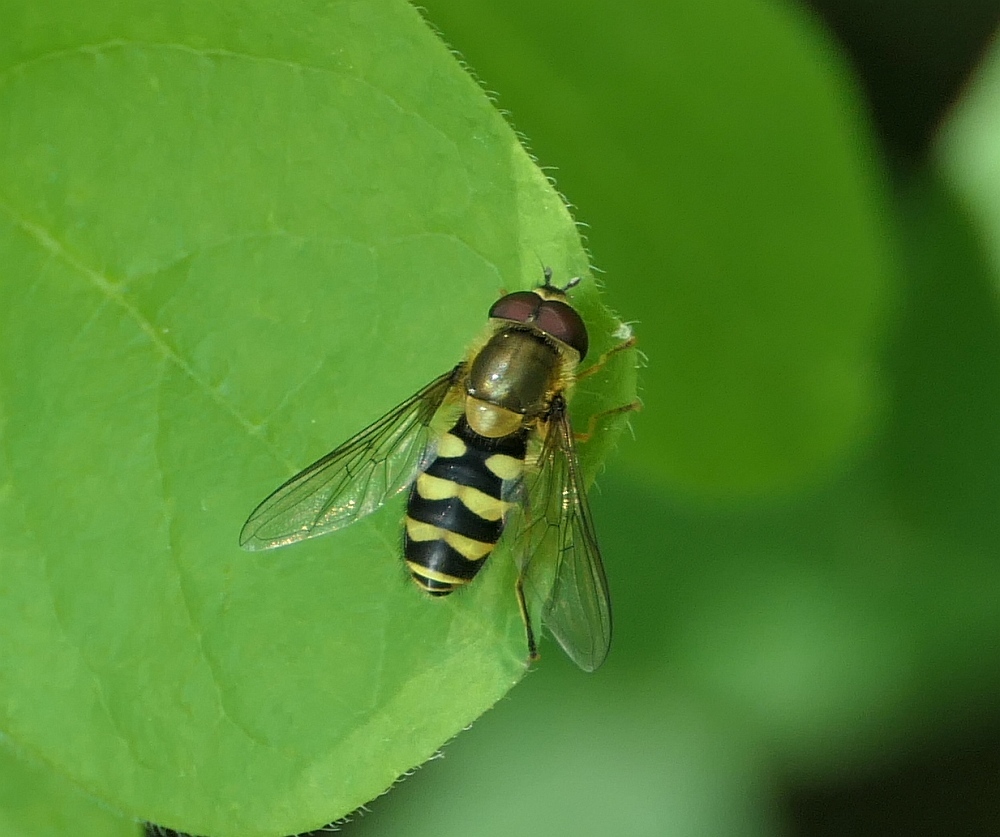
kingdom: Animalia
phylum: Arthropoda
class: Insecta
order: Diptera
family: Syrphidae
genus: Syrphus
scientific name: Syrphus
